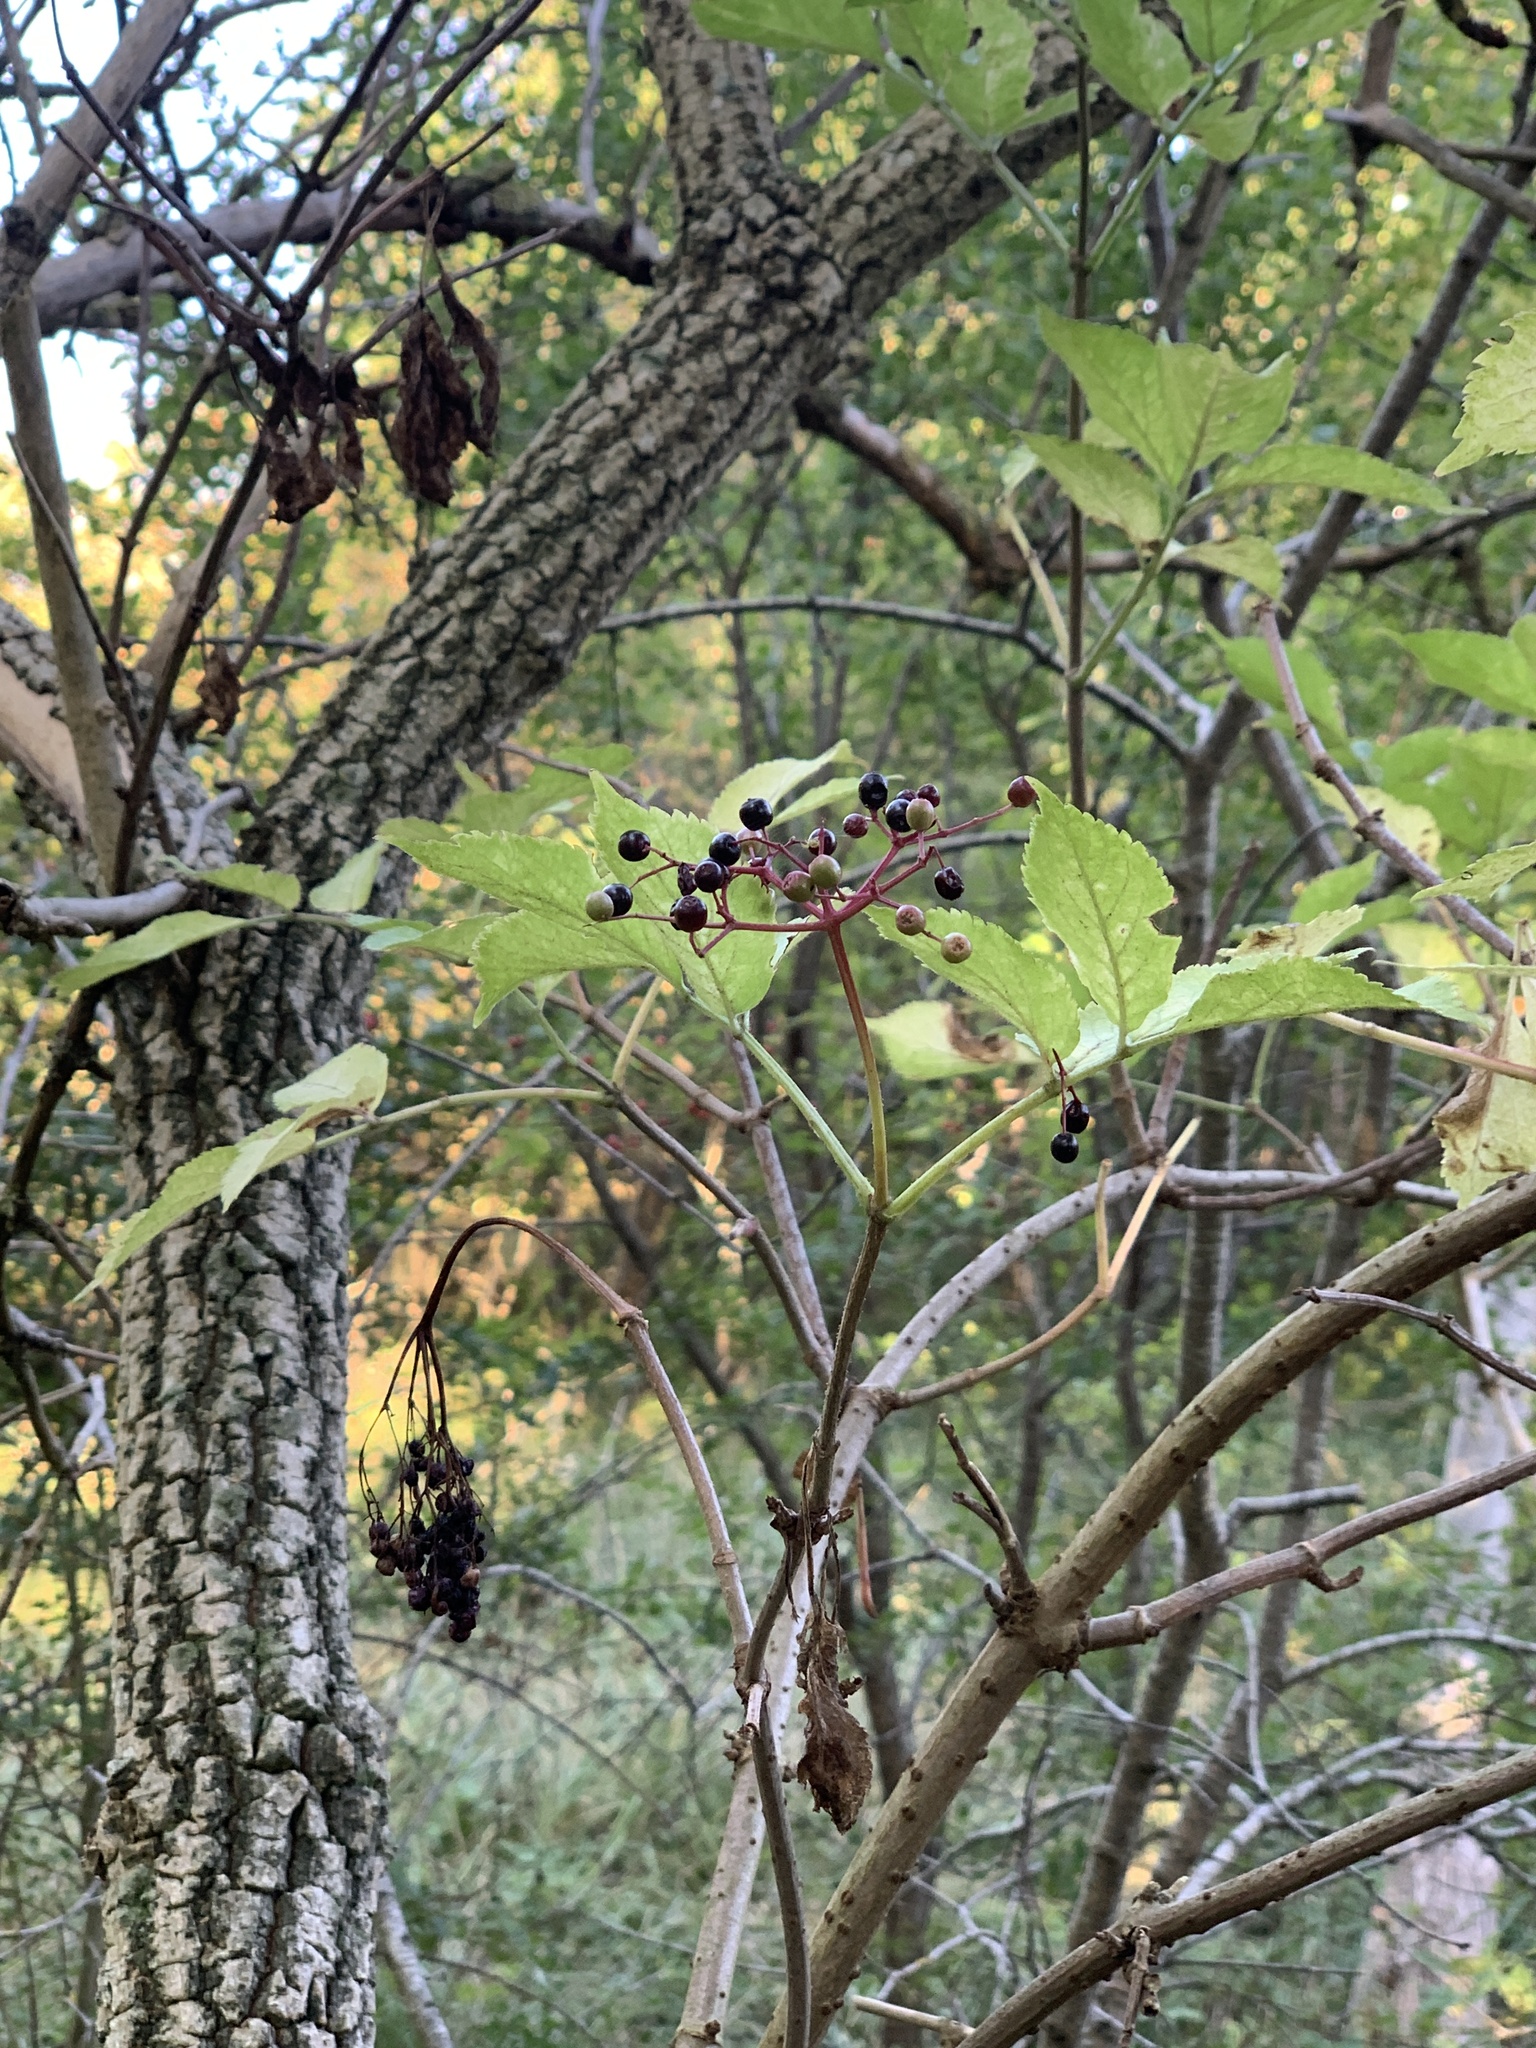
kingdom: Plantae
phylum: Tracheophyta
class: Magnoliopsida
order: Dipsacales
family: Viburnaceae
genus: Sambucus
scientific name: Sambucus nigra
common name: Elder
